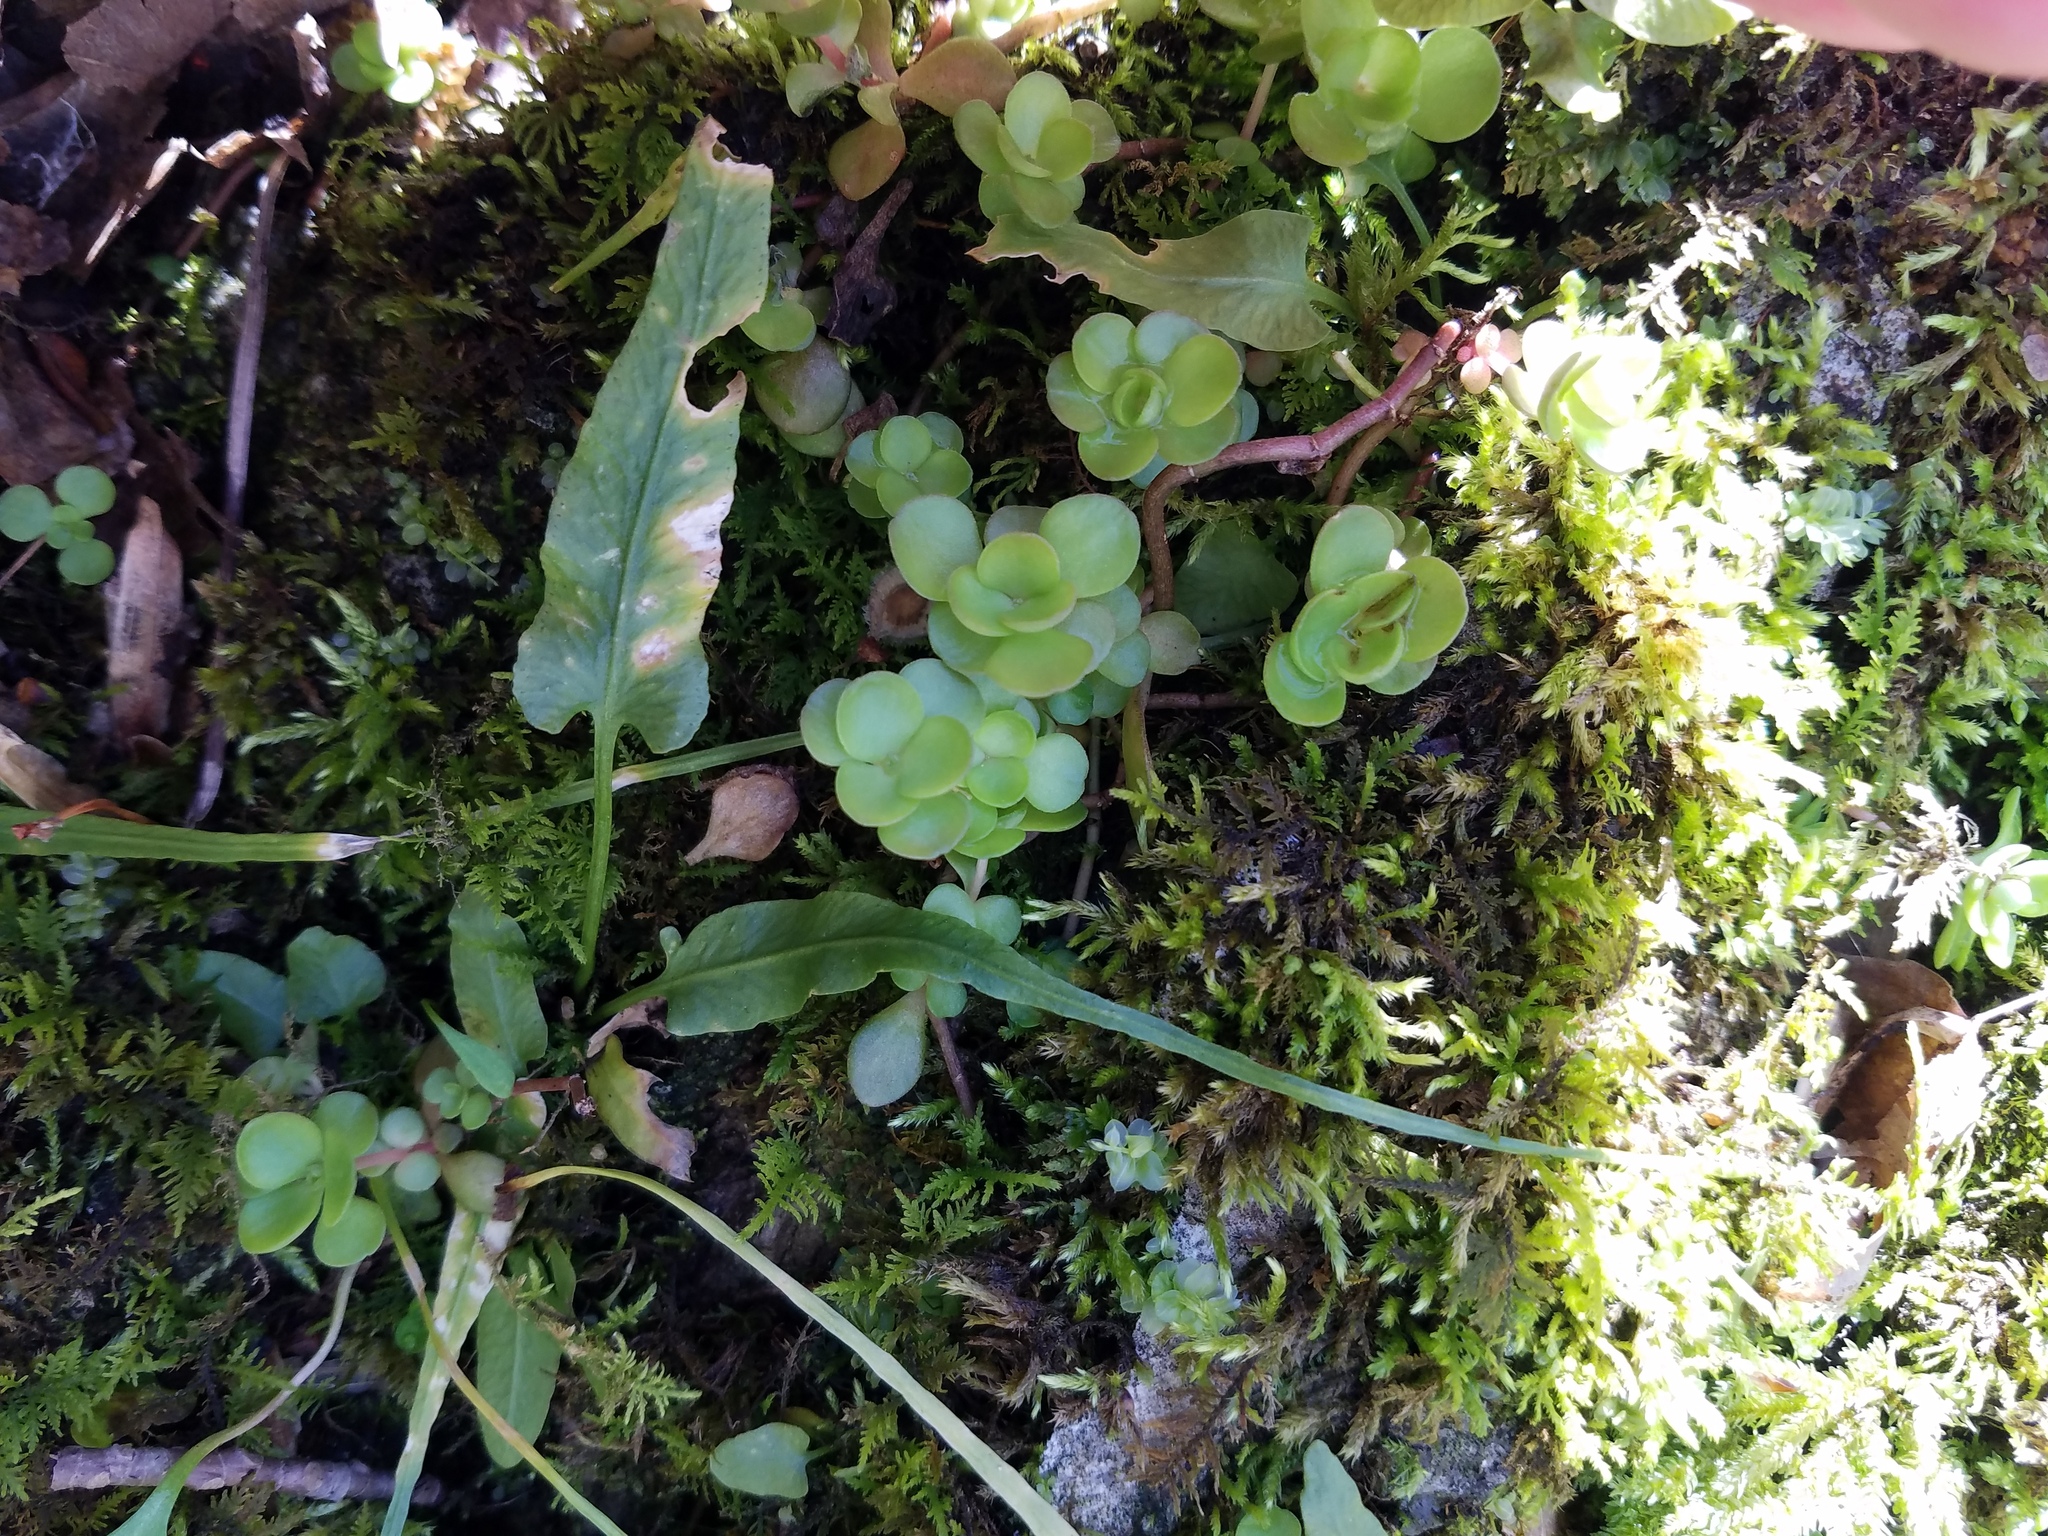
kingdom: Plantae
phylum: Tracheophyta
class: Polypodiopsida
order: Polypodiales
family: Aspleniaceae
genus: Asplenium
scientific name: Asplenium rhizophyllum
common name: Walking fern
